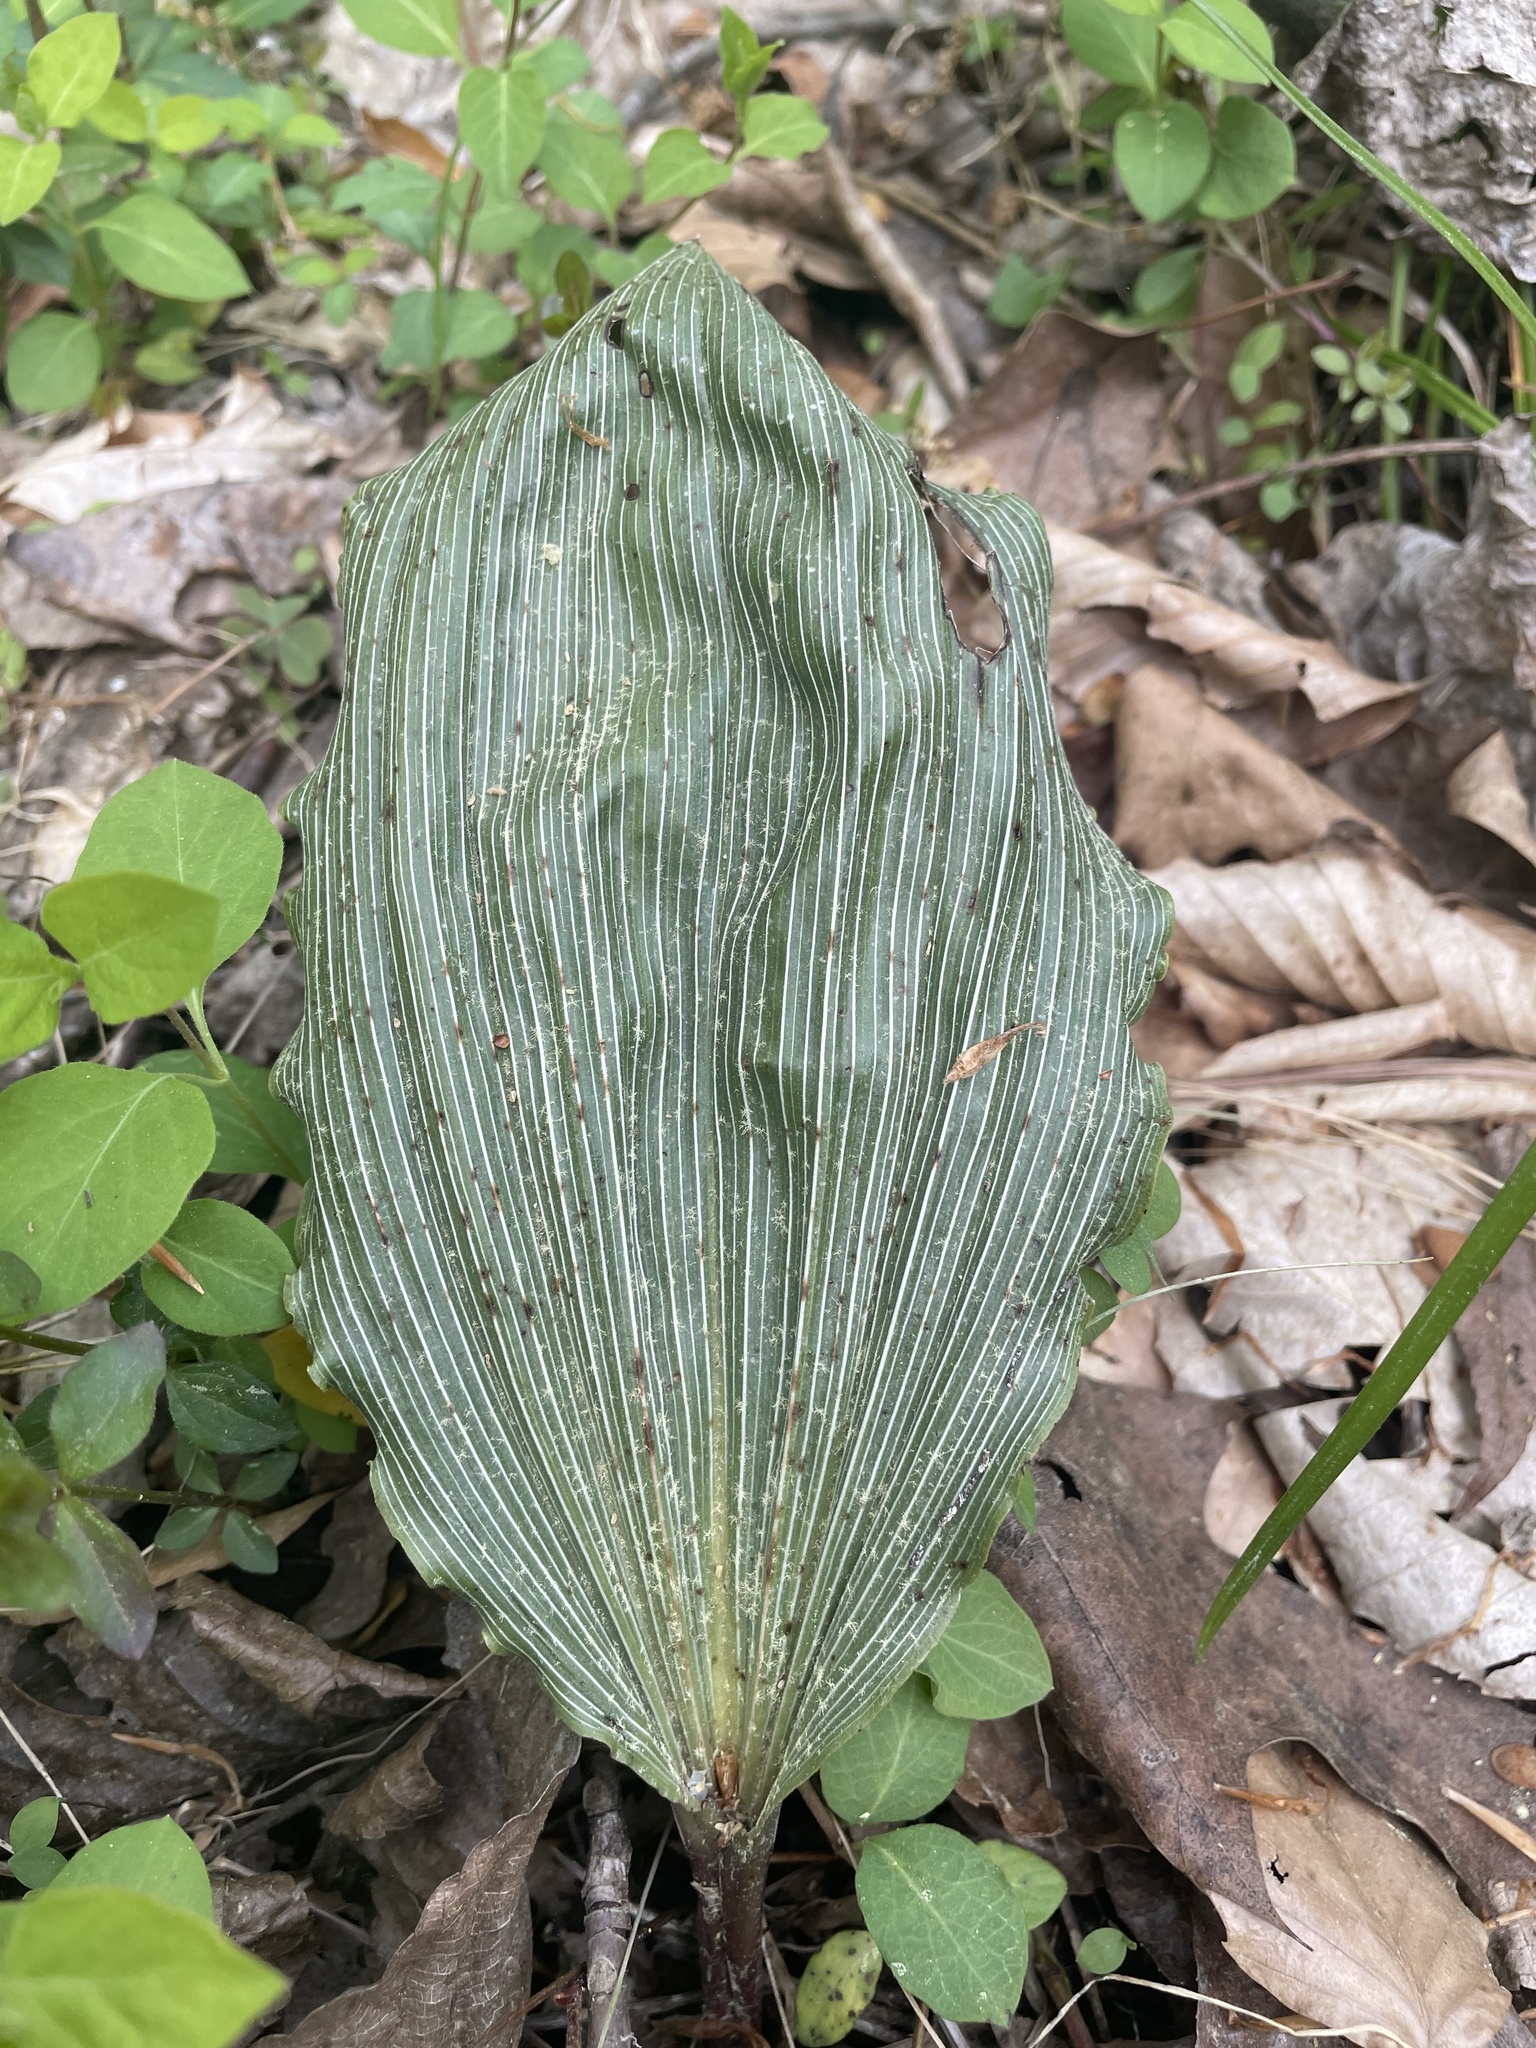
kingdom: Plantae
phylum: Tracheophyta
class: Liliopsida
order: Asparagales
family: Orchidaceae
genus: Aplectrum
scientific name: Aplectrum hyemale
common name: Adam-and-eve
